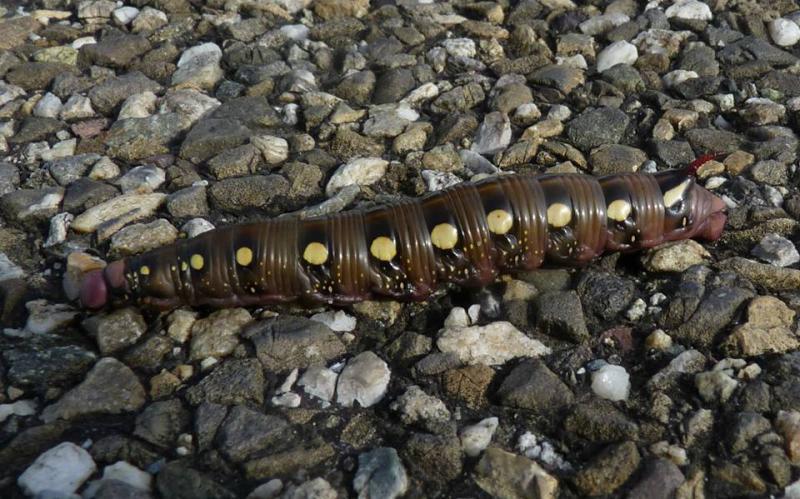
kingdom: Animalia
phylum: Arthropoda
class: Insecta
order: Lepidoptera
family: Sphingidae
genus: Hyles
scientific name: Hyles gallii
